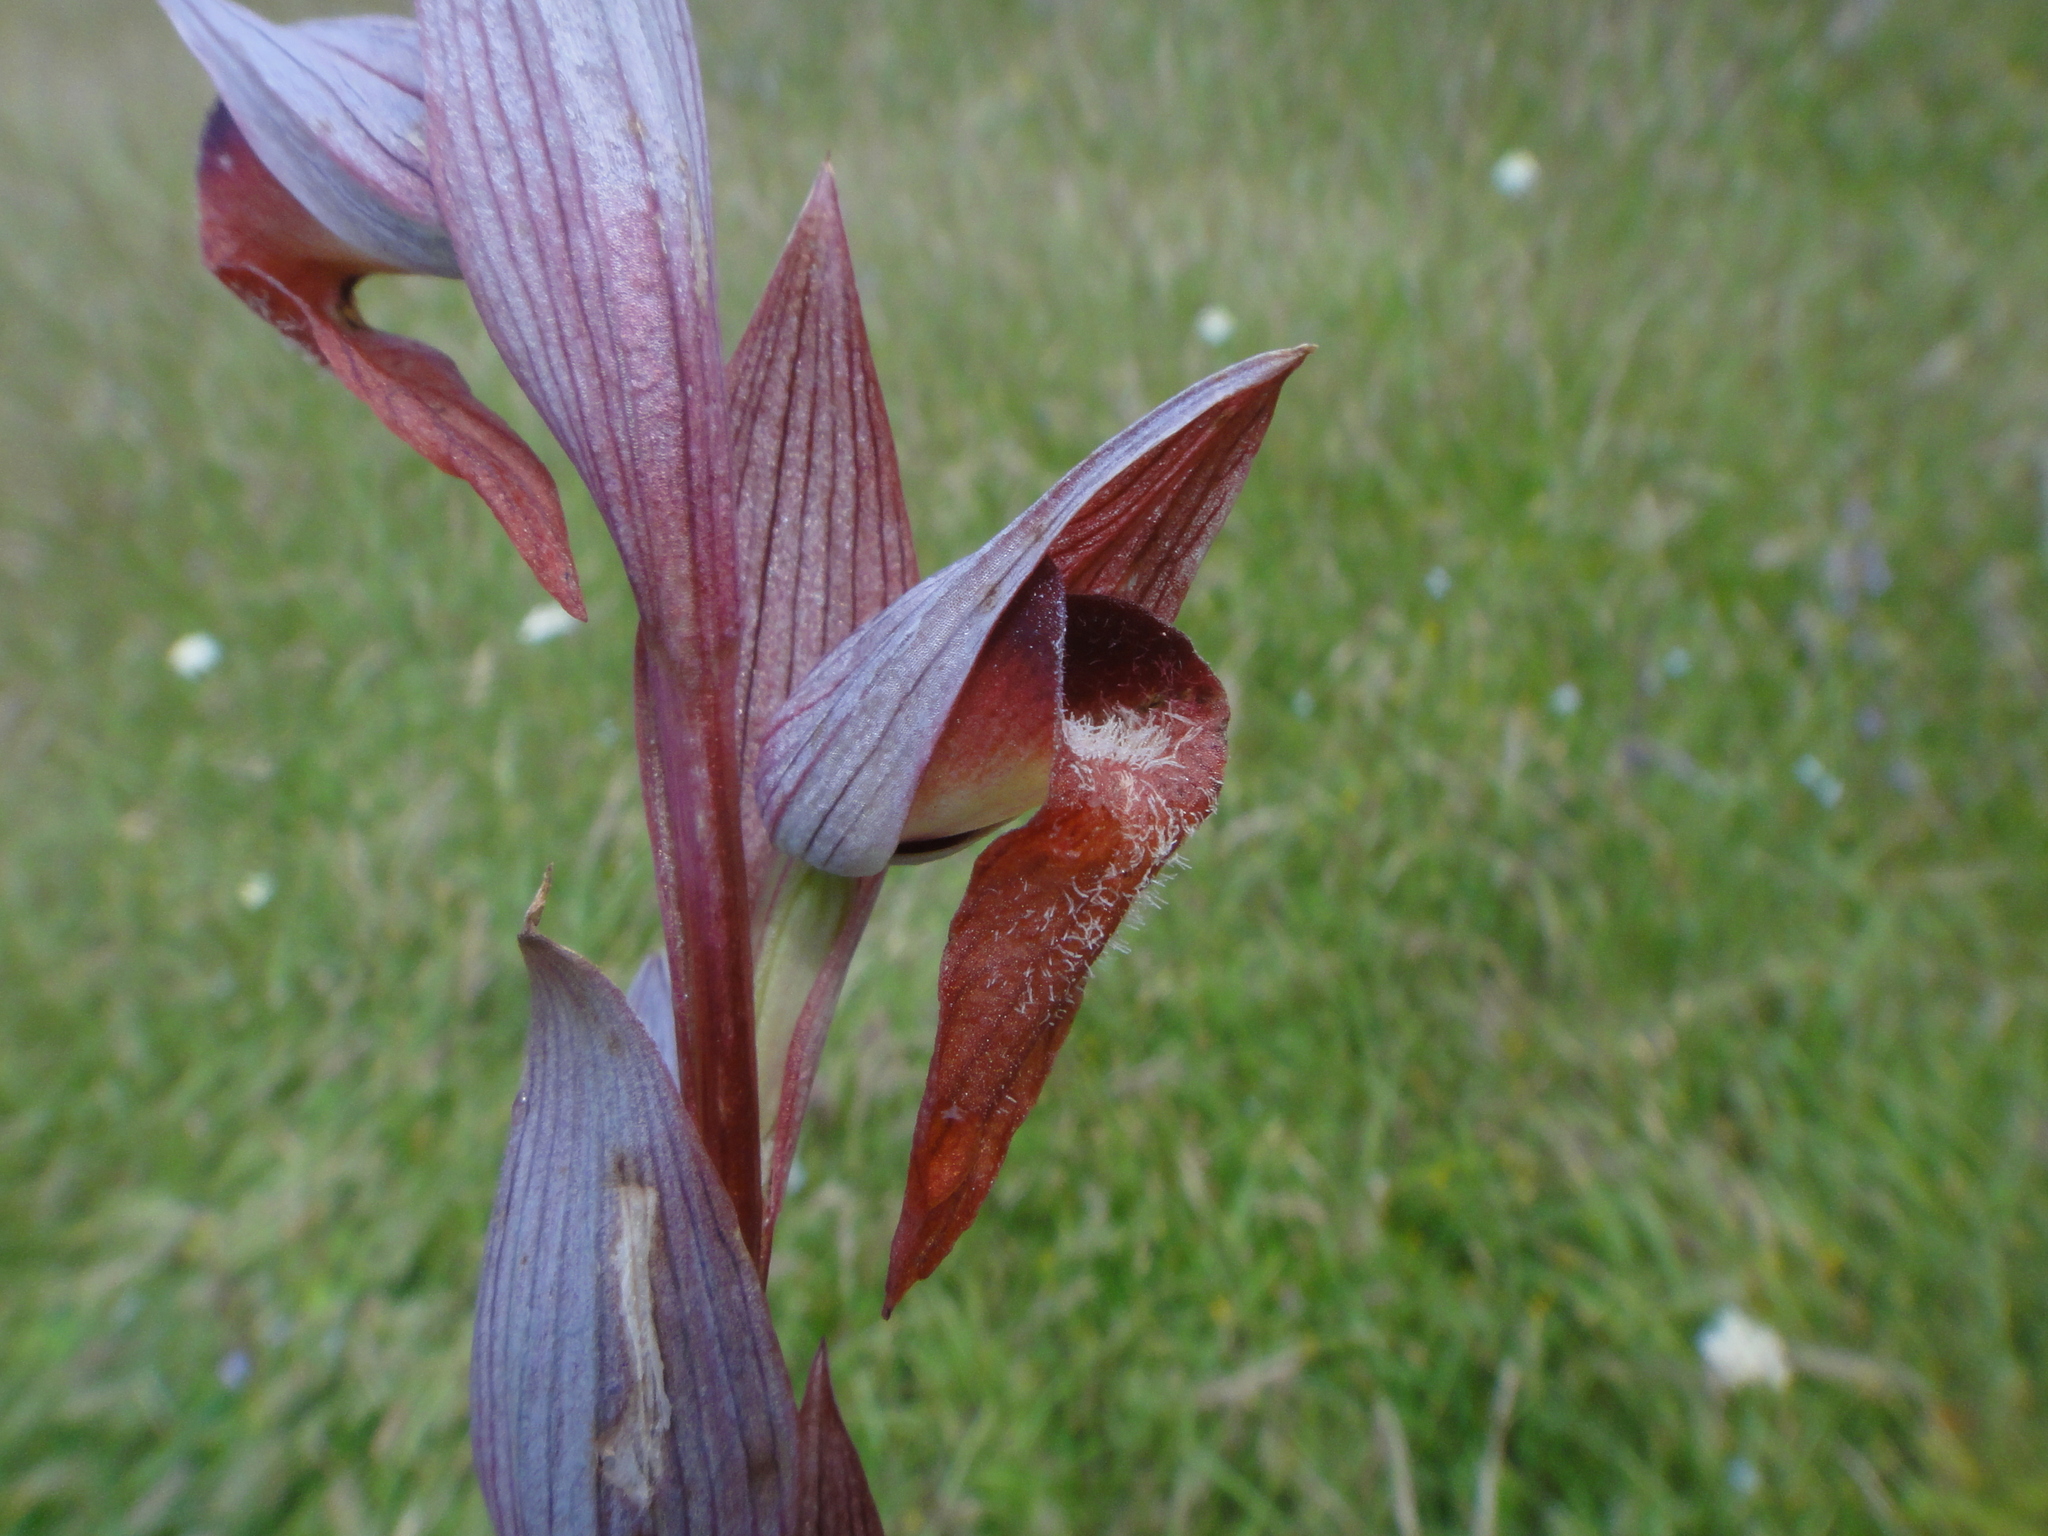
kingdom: Plantae
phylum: Tracheophyta
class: Liliopsida
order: Asparagales
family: Orchidaceae
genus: Serapias
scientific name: Serapias vomeracea
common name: Long-lipped tongue-orchid
